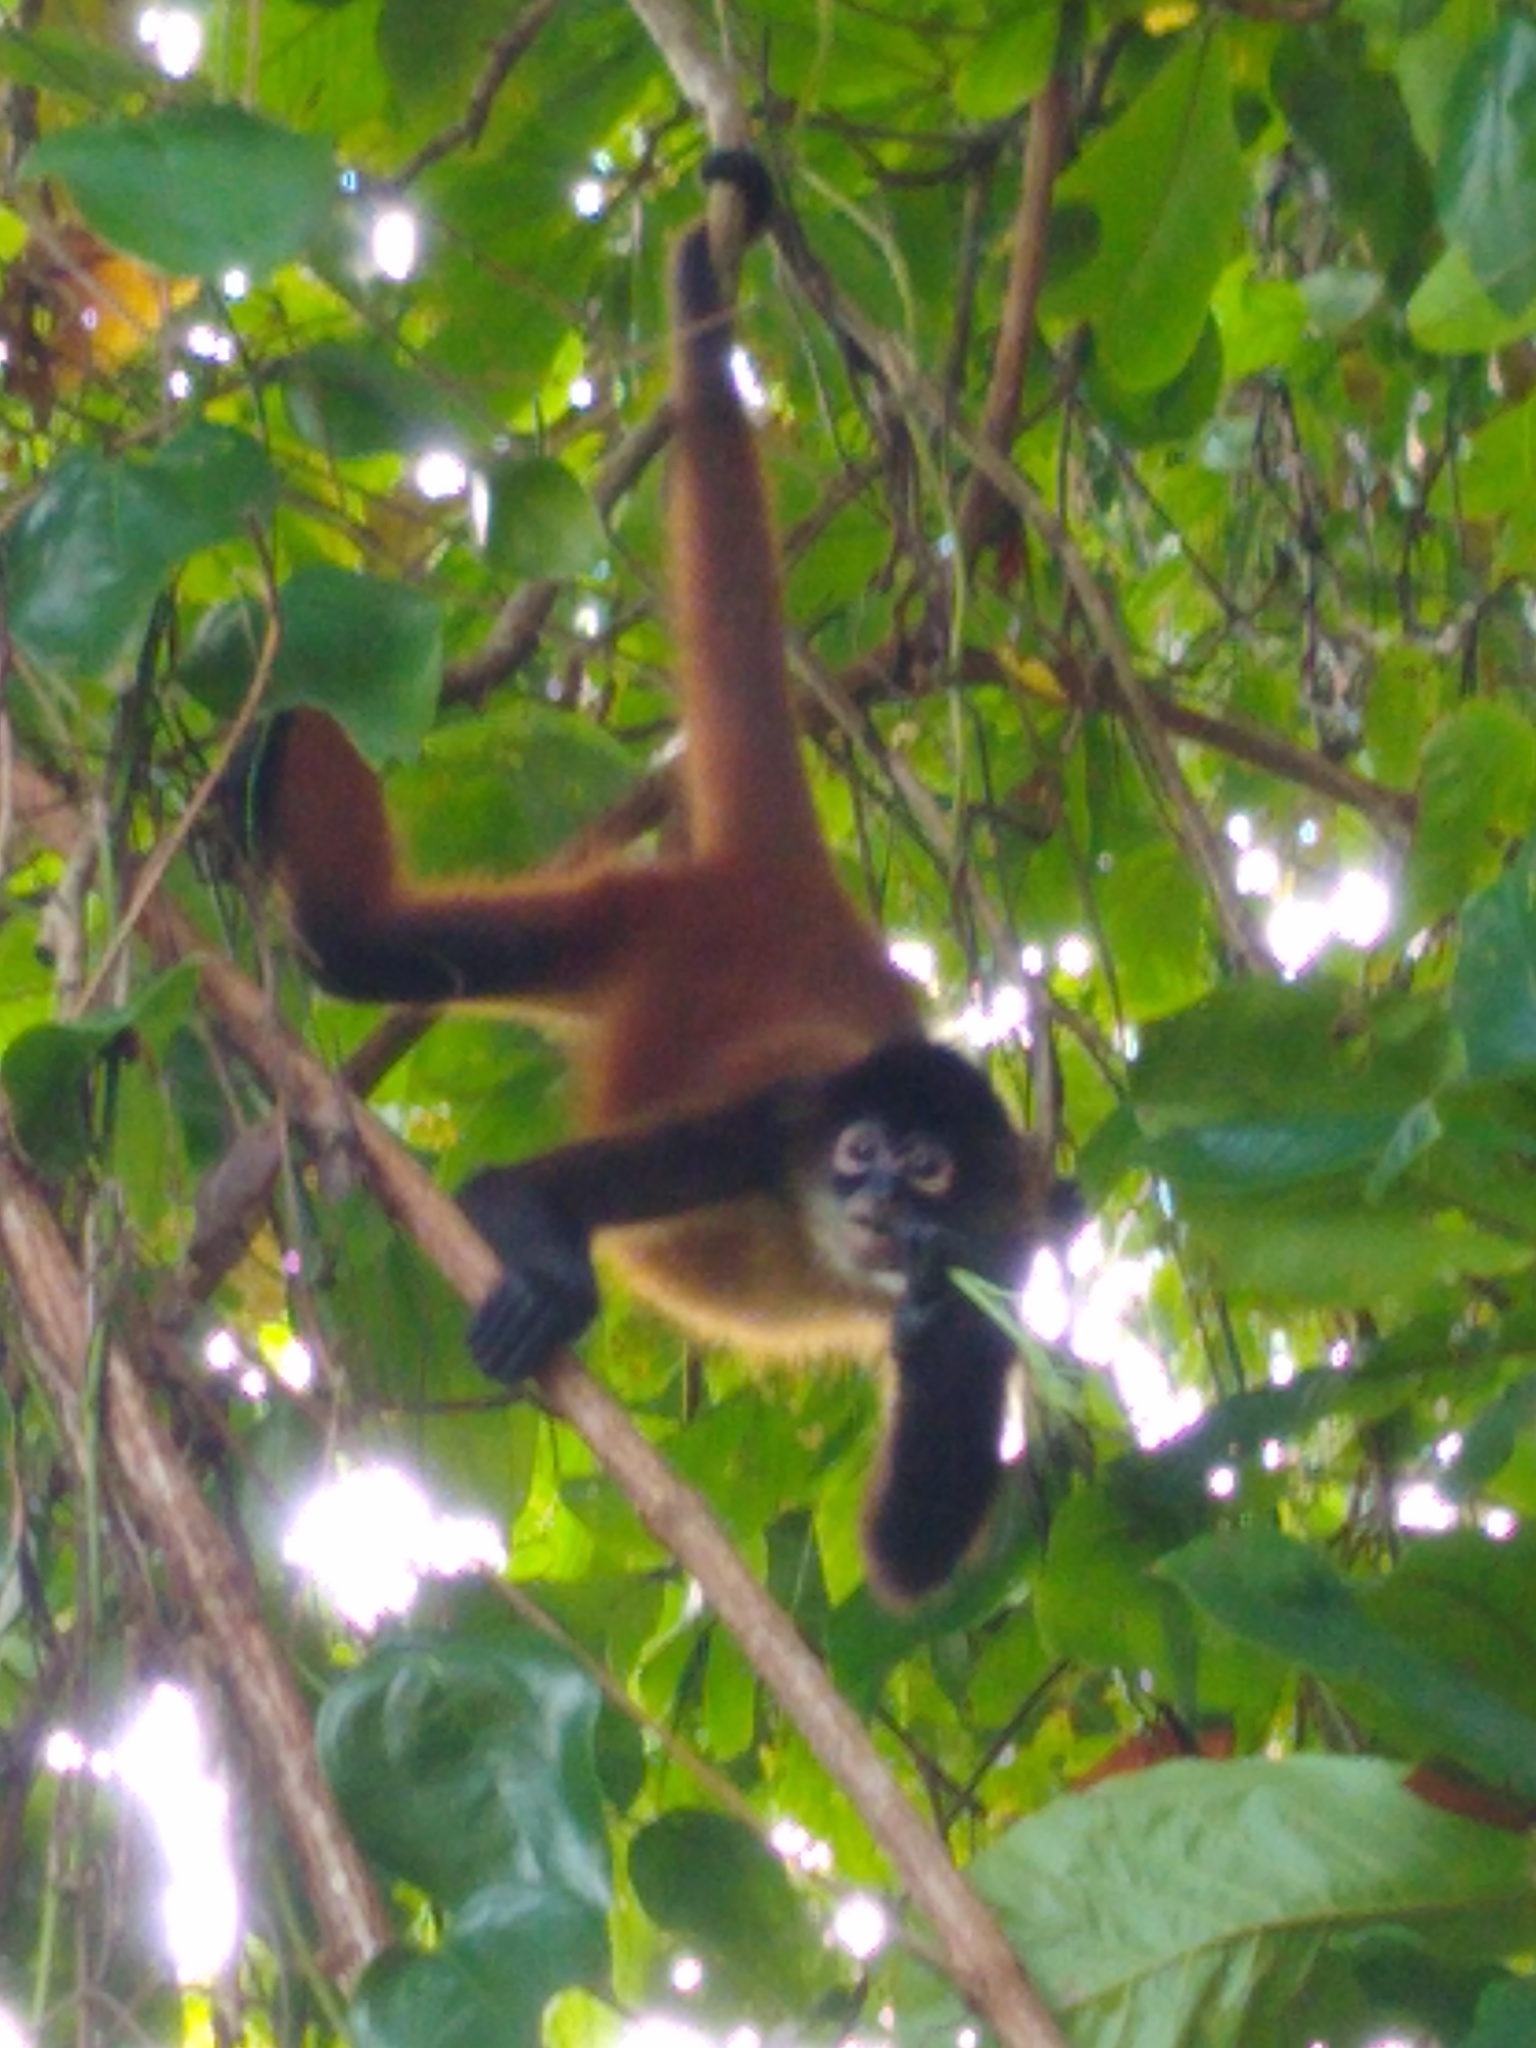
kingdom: Animalia
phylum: Chordata
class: Mammalia
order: Primates
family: Atelidae
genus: Ateles
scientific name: Ateles geoffroyi
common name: Black-handed spider monkey
